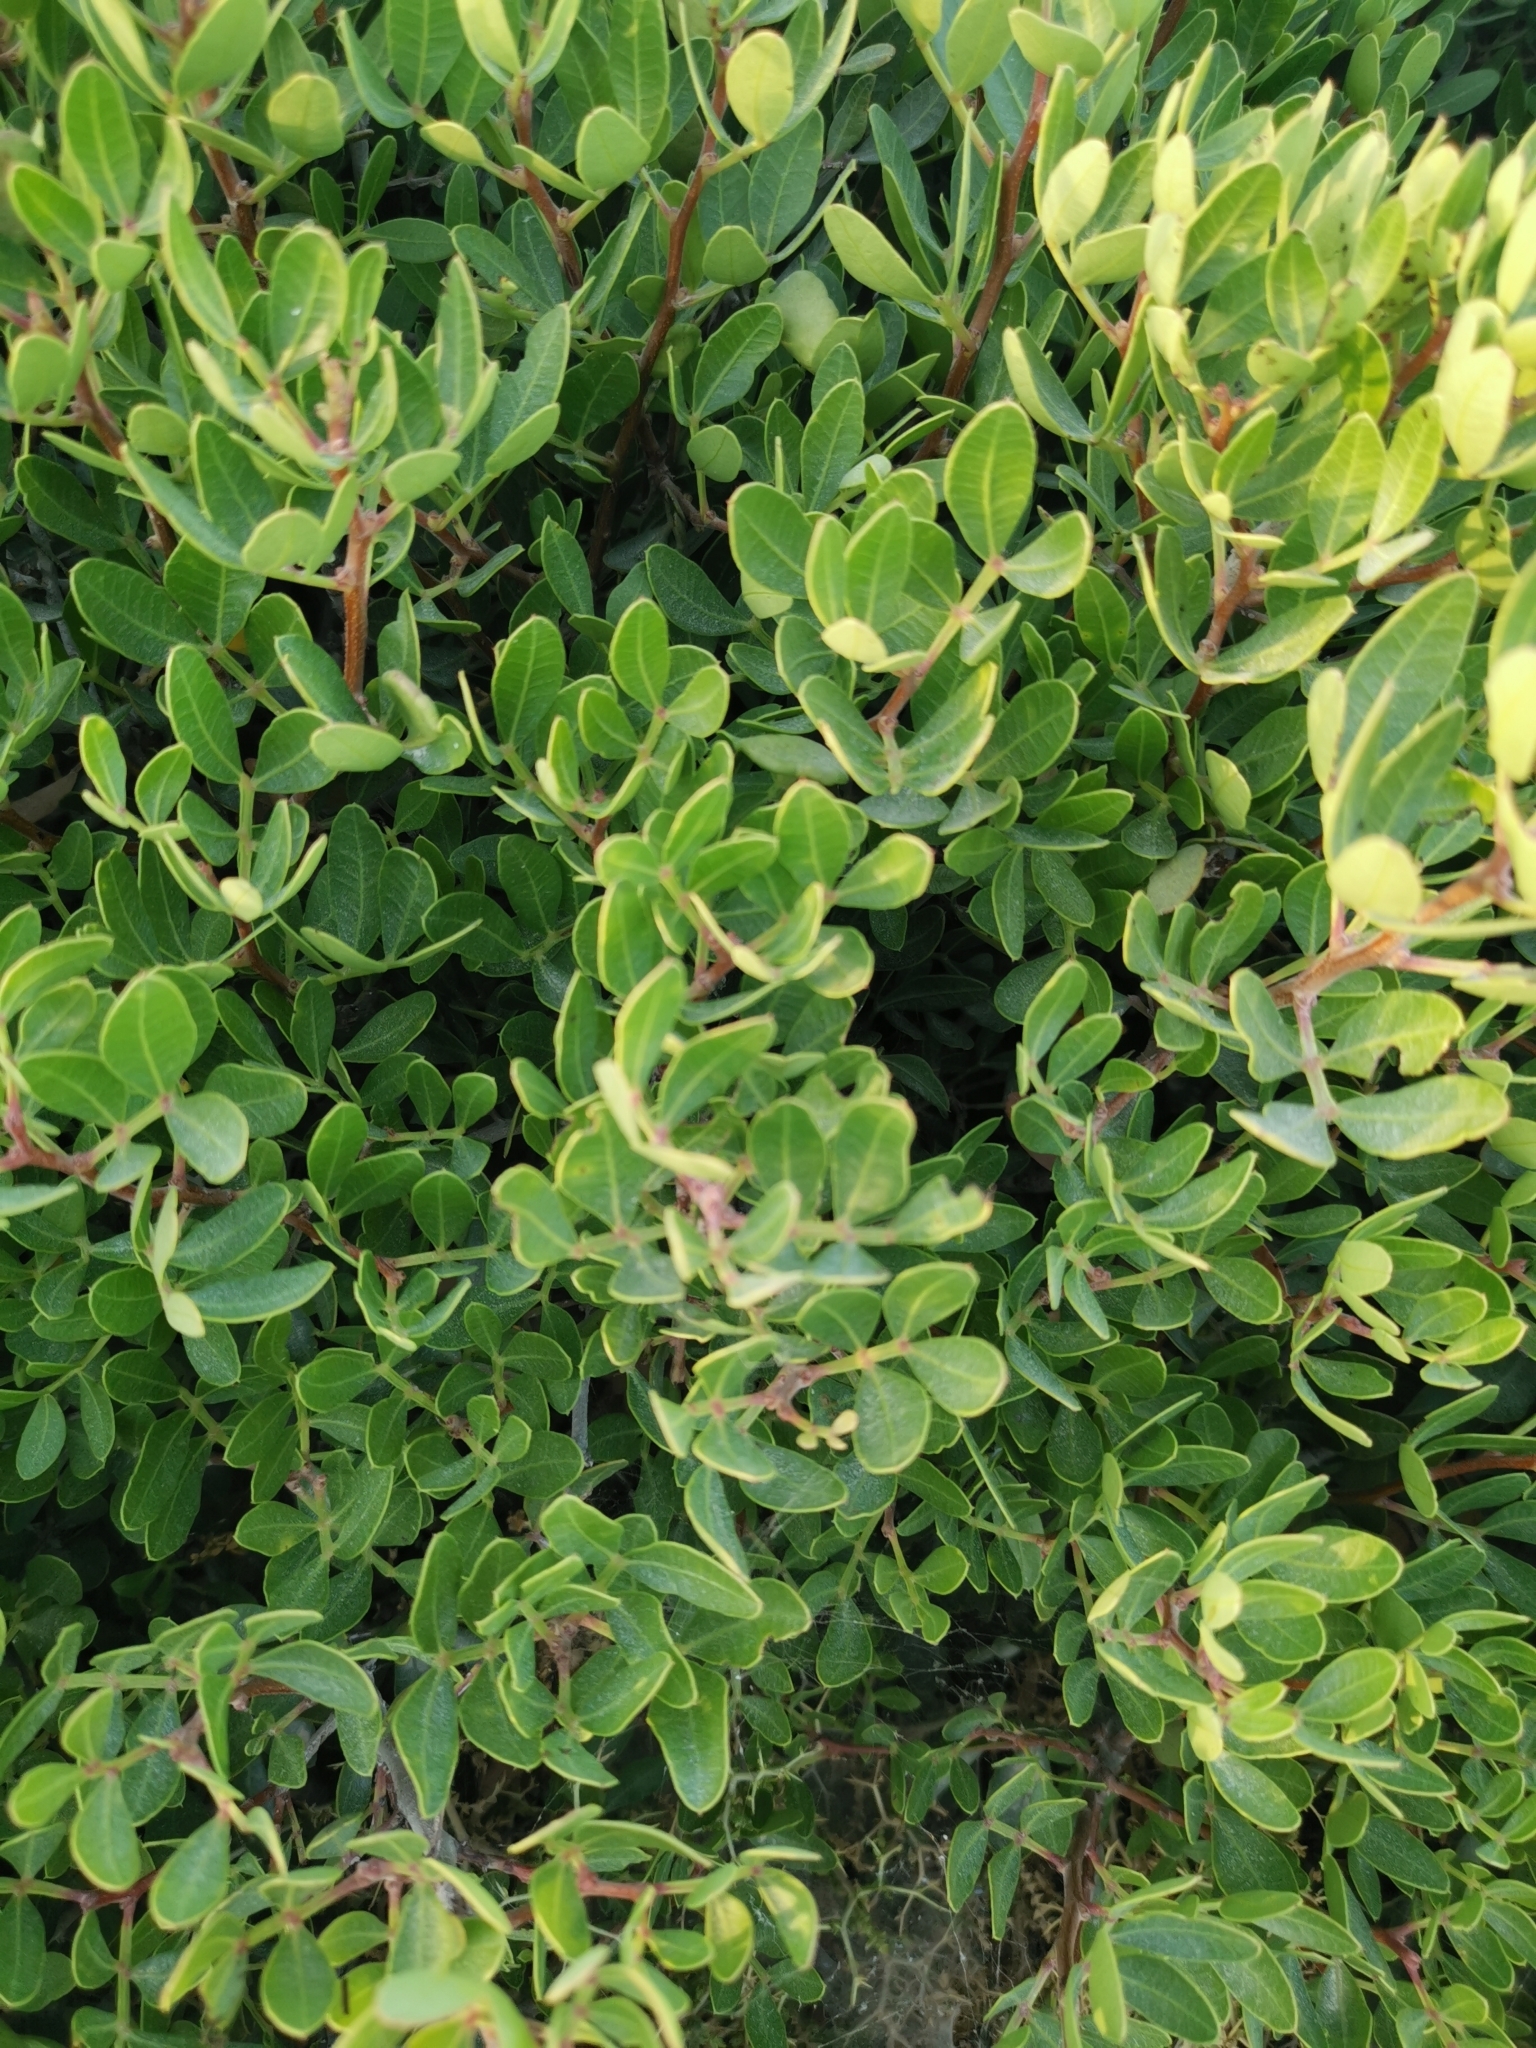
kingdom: Plantae
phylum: Tracheophyta
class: Magnoliopsida
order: Sapindales
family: Anacardiaceae
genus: Pistacia
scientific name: Pistacia lentiscus
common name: Lentisk
